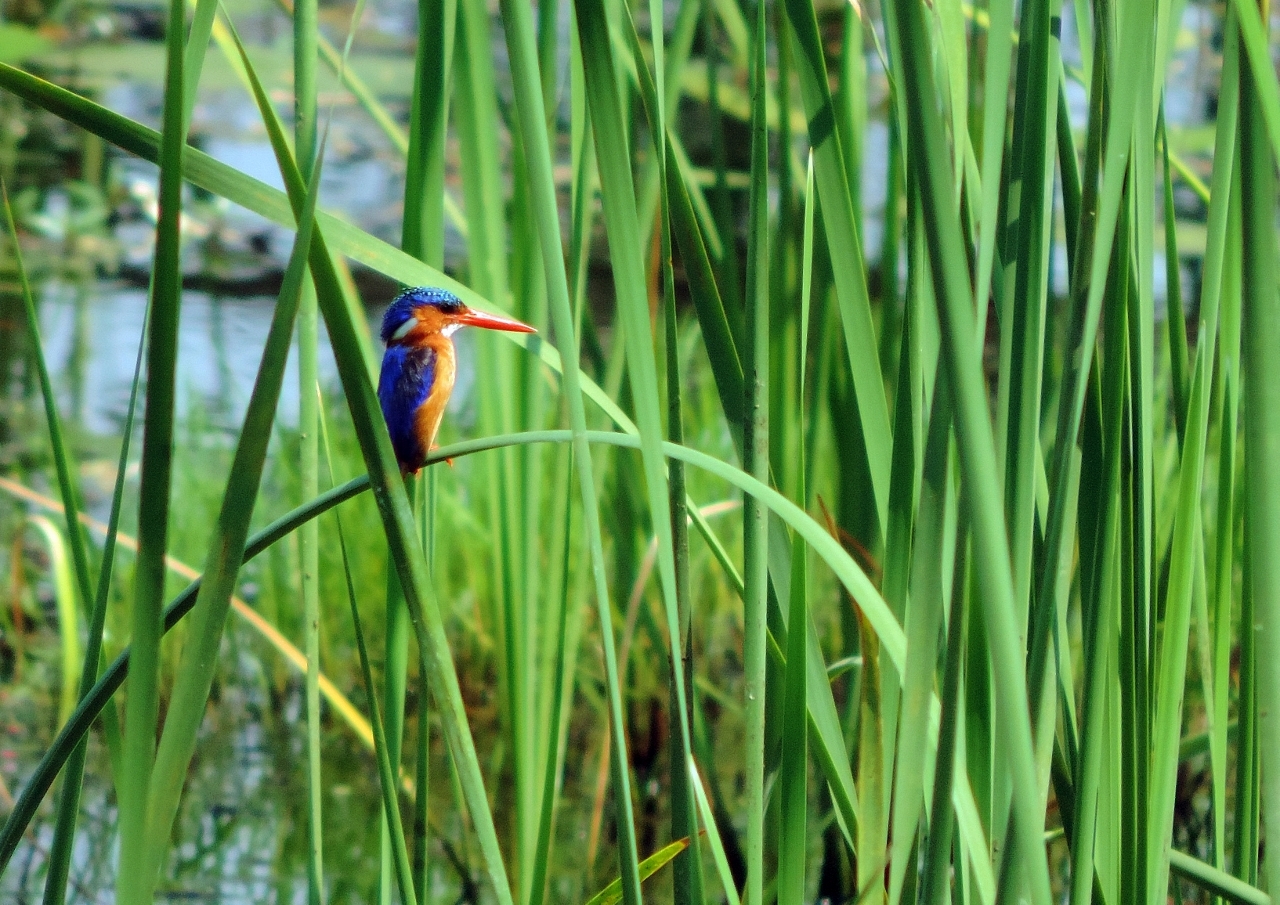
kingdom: Animalia
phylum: Chordata
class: Aves
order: Coraciiformes
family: Alcedinidae
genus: Corythornis
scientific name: Corythornis cristatus
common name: Malachite kingfisher
